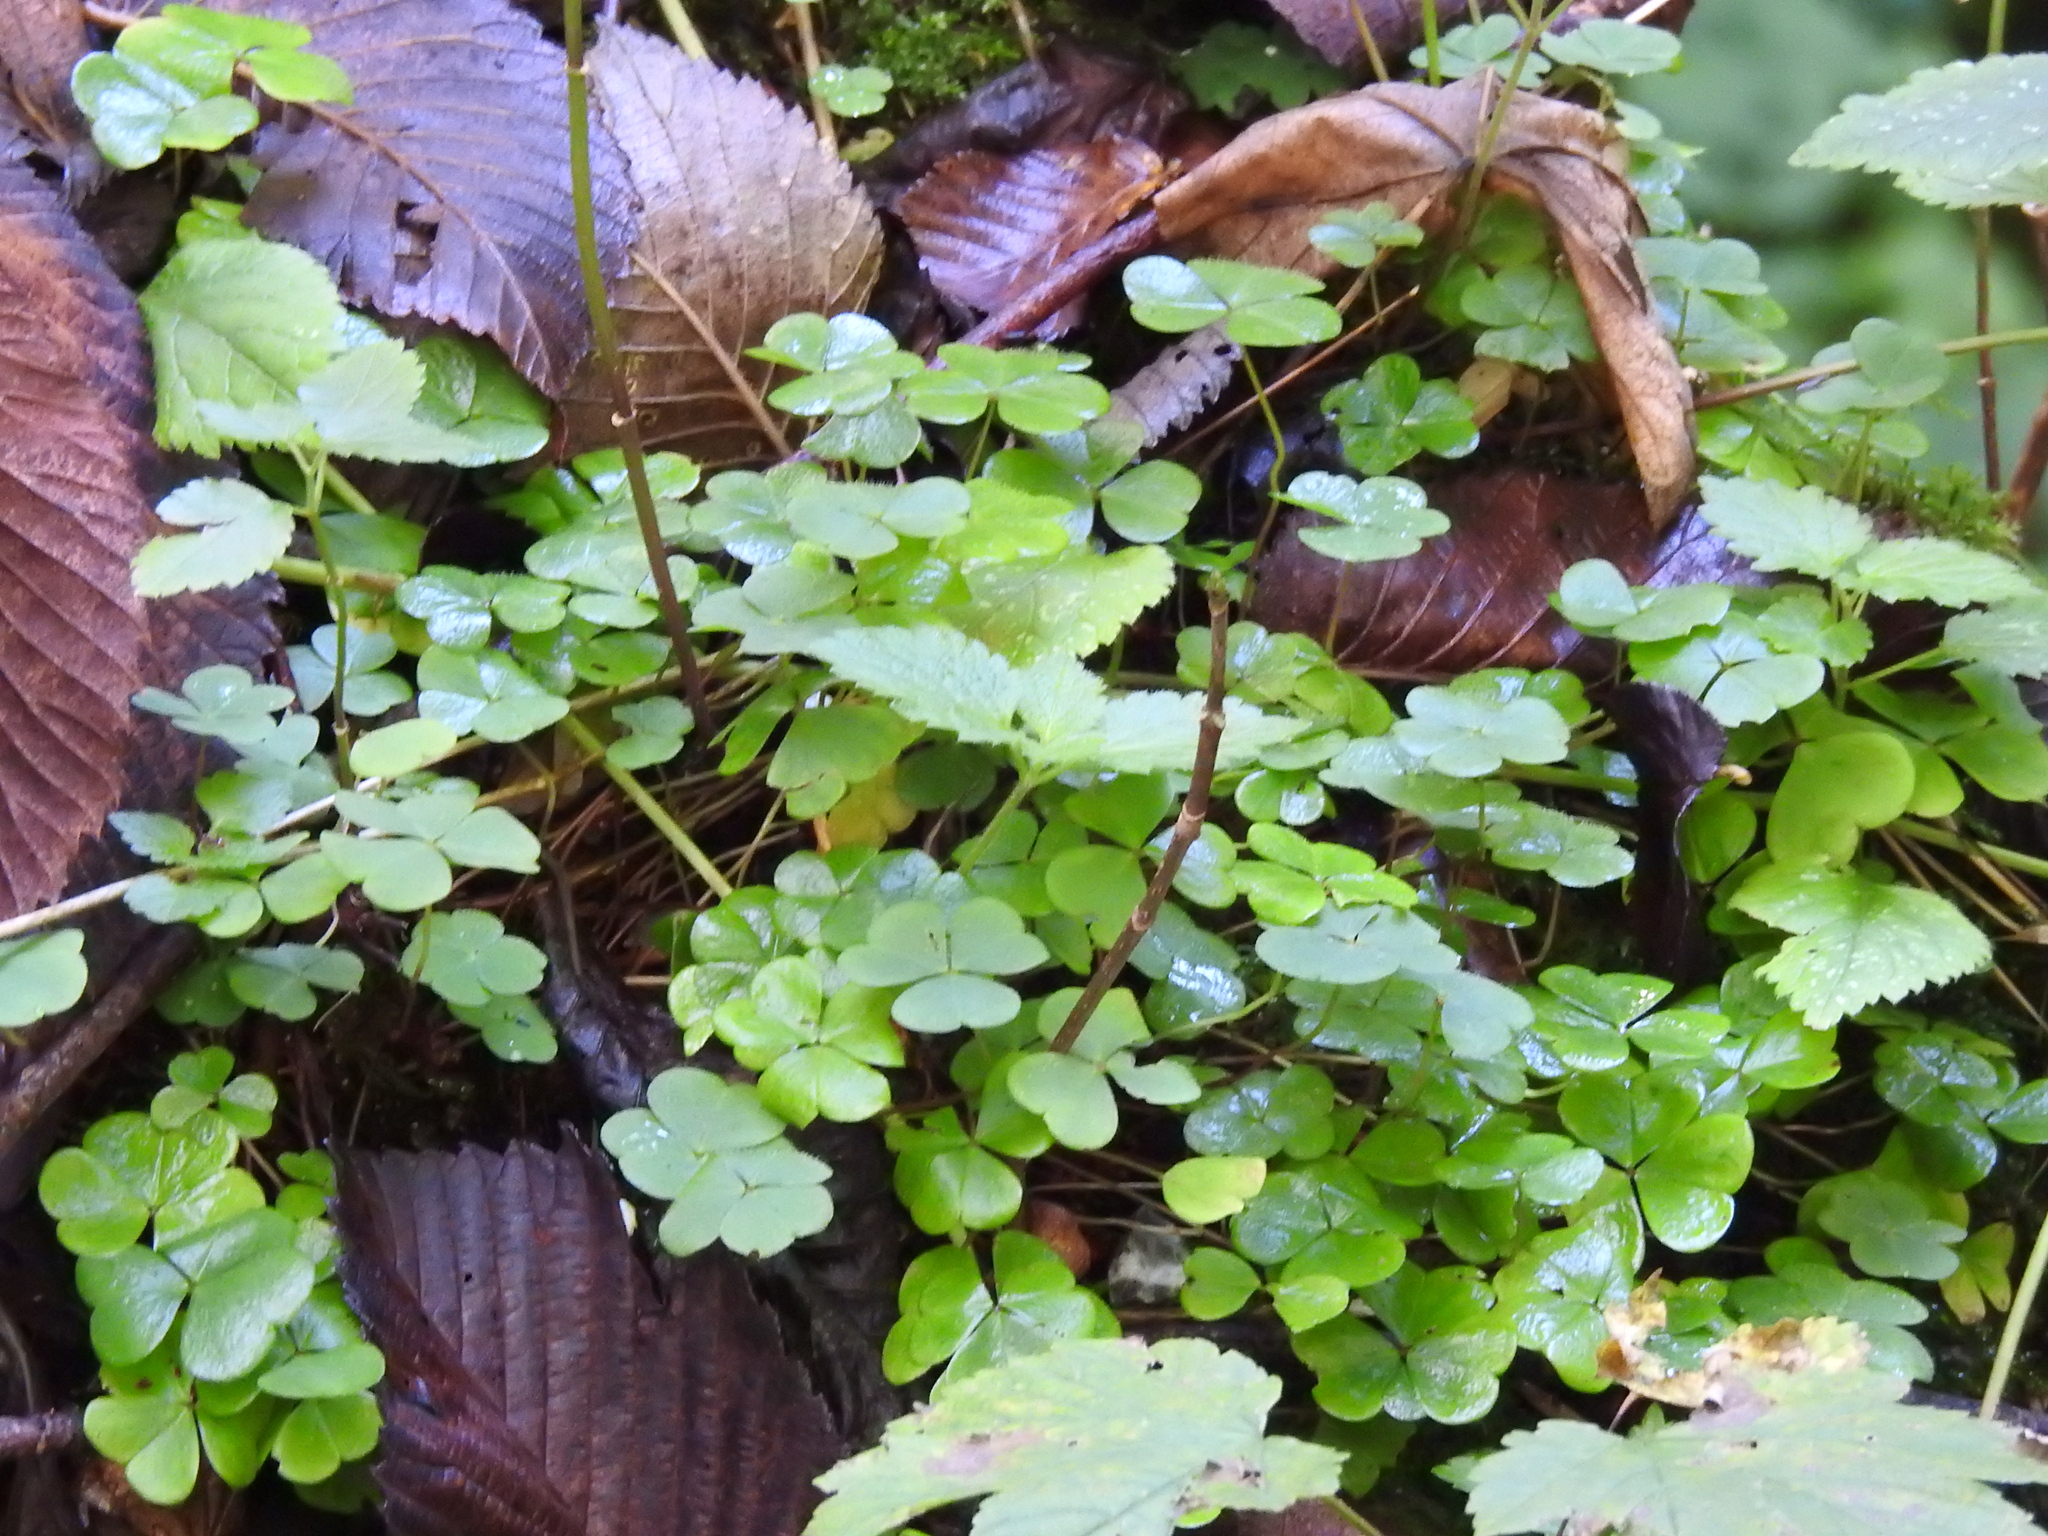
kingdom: Plantae
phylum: Tracheophyta
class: Magnoliopsida
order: Oxalidales
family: Oxalidaceae
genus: Oxalis
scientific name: Oxalis acetosella
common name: Wood-sorrel
